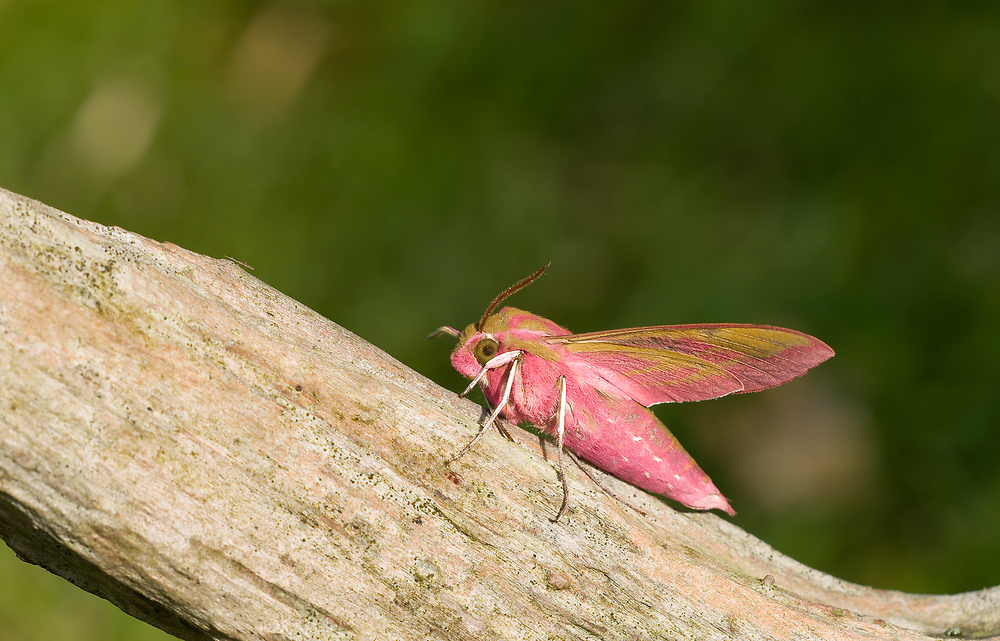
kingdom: Animalia
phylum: Arthropoda
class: Insecta
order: Lepidoptera
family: Sphingidae
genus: Deilephila
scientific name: Deilephila elpenor
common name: Elephant hawk-moth
